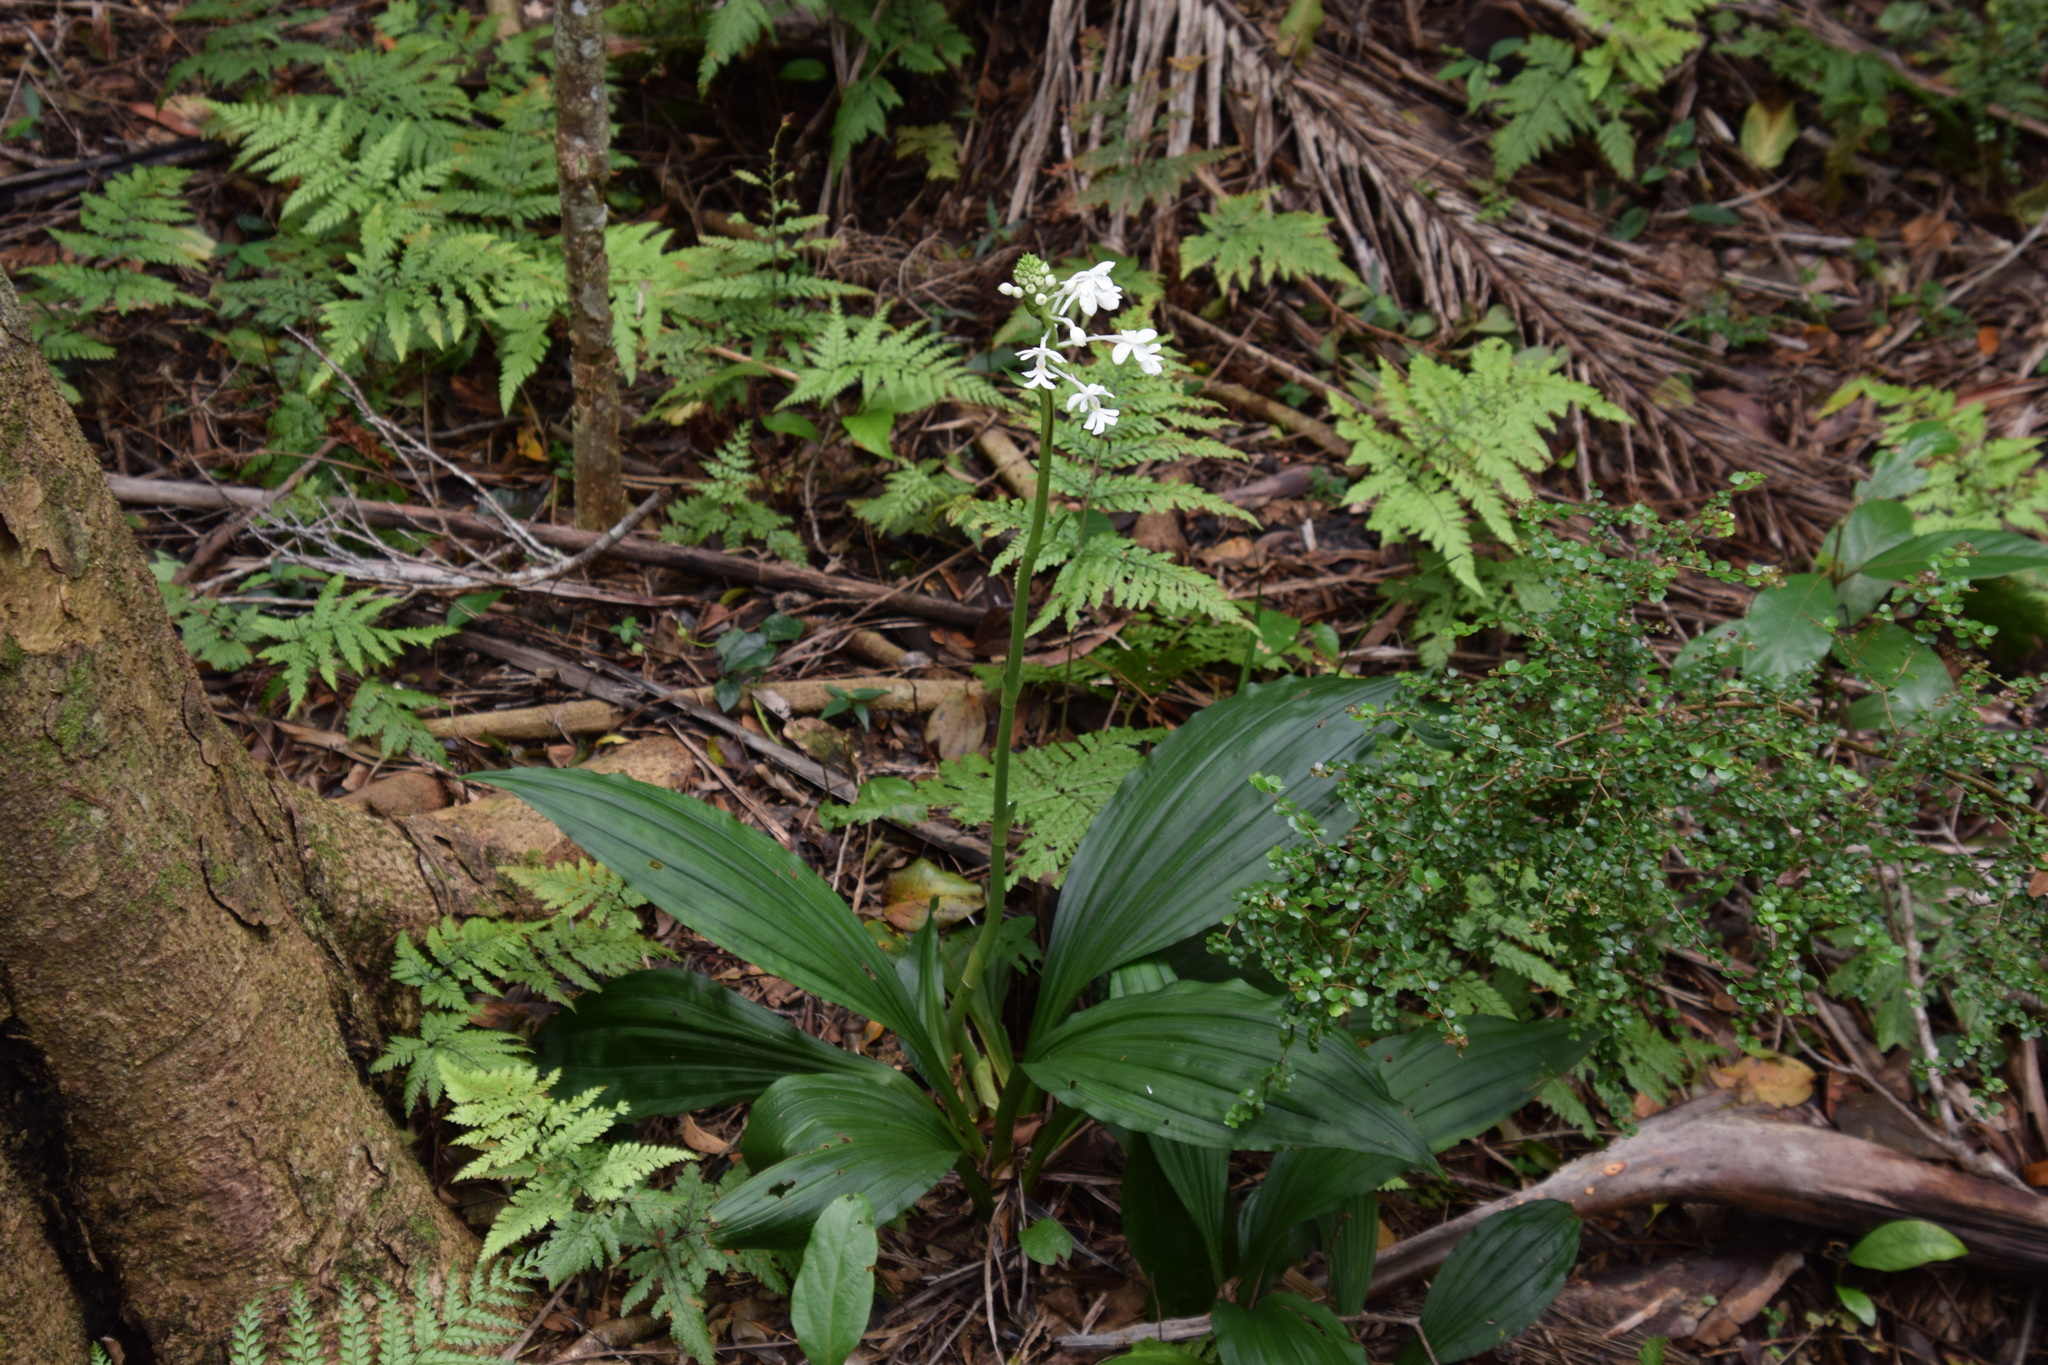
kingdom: Plantae
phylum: Tracheophyta
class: Liliopsida
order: Asparagales
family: Orchidaceae
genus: Calanthe
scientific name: Calanthe triplicata
